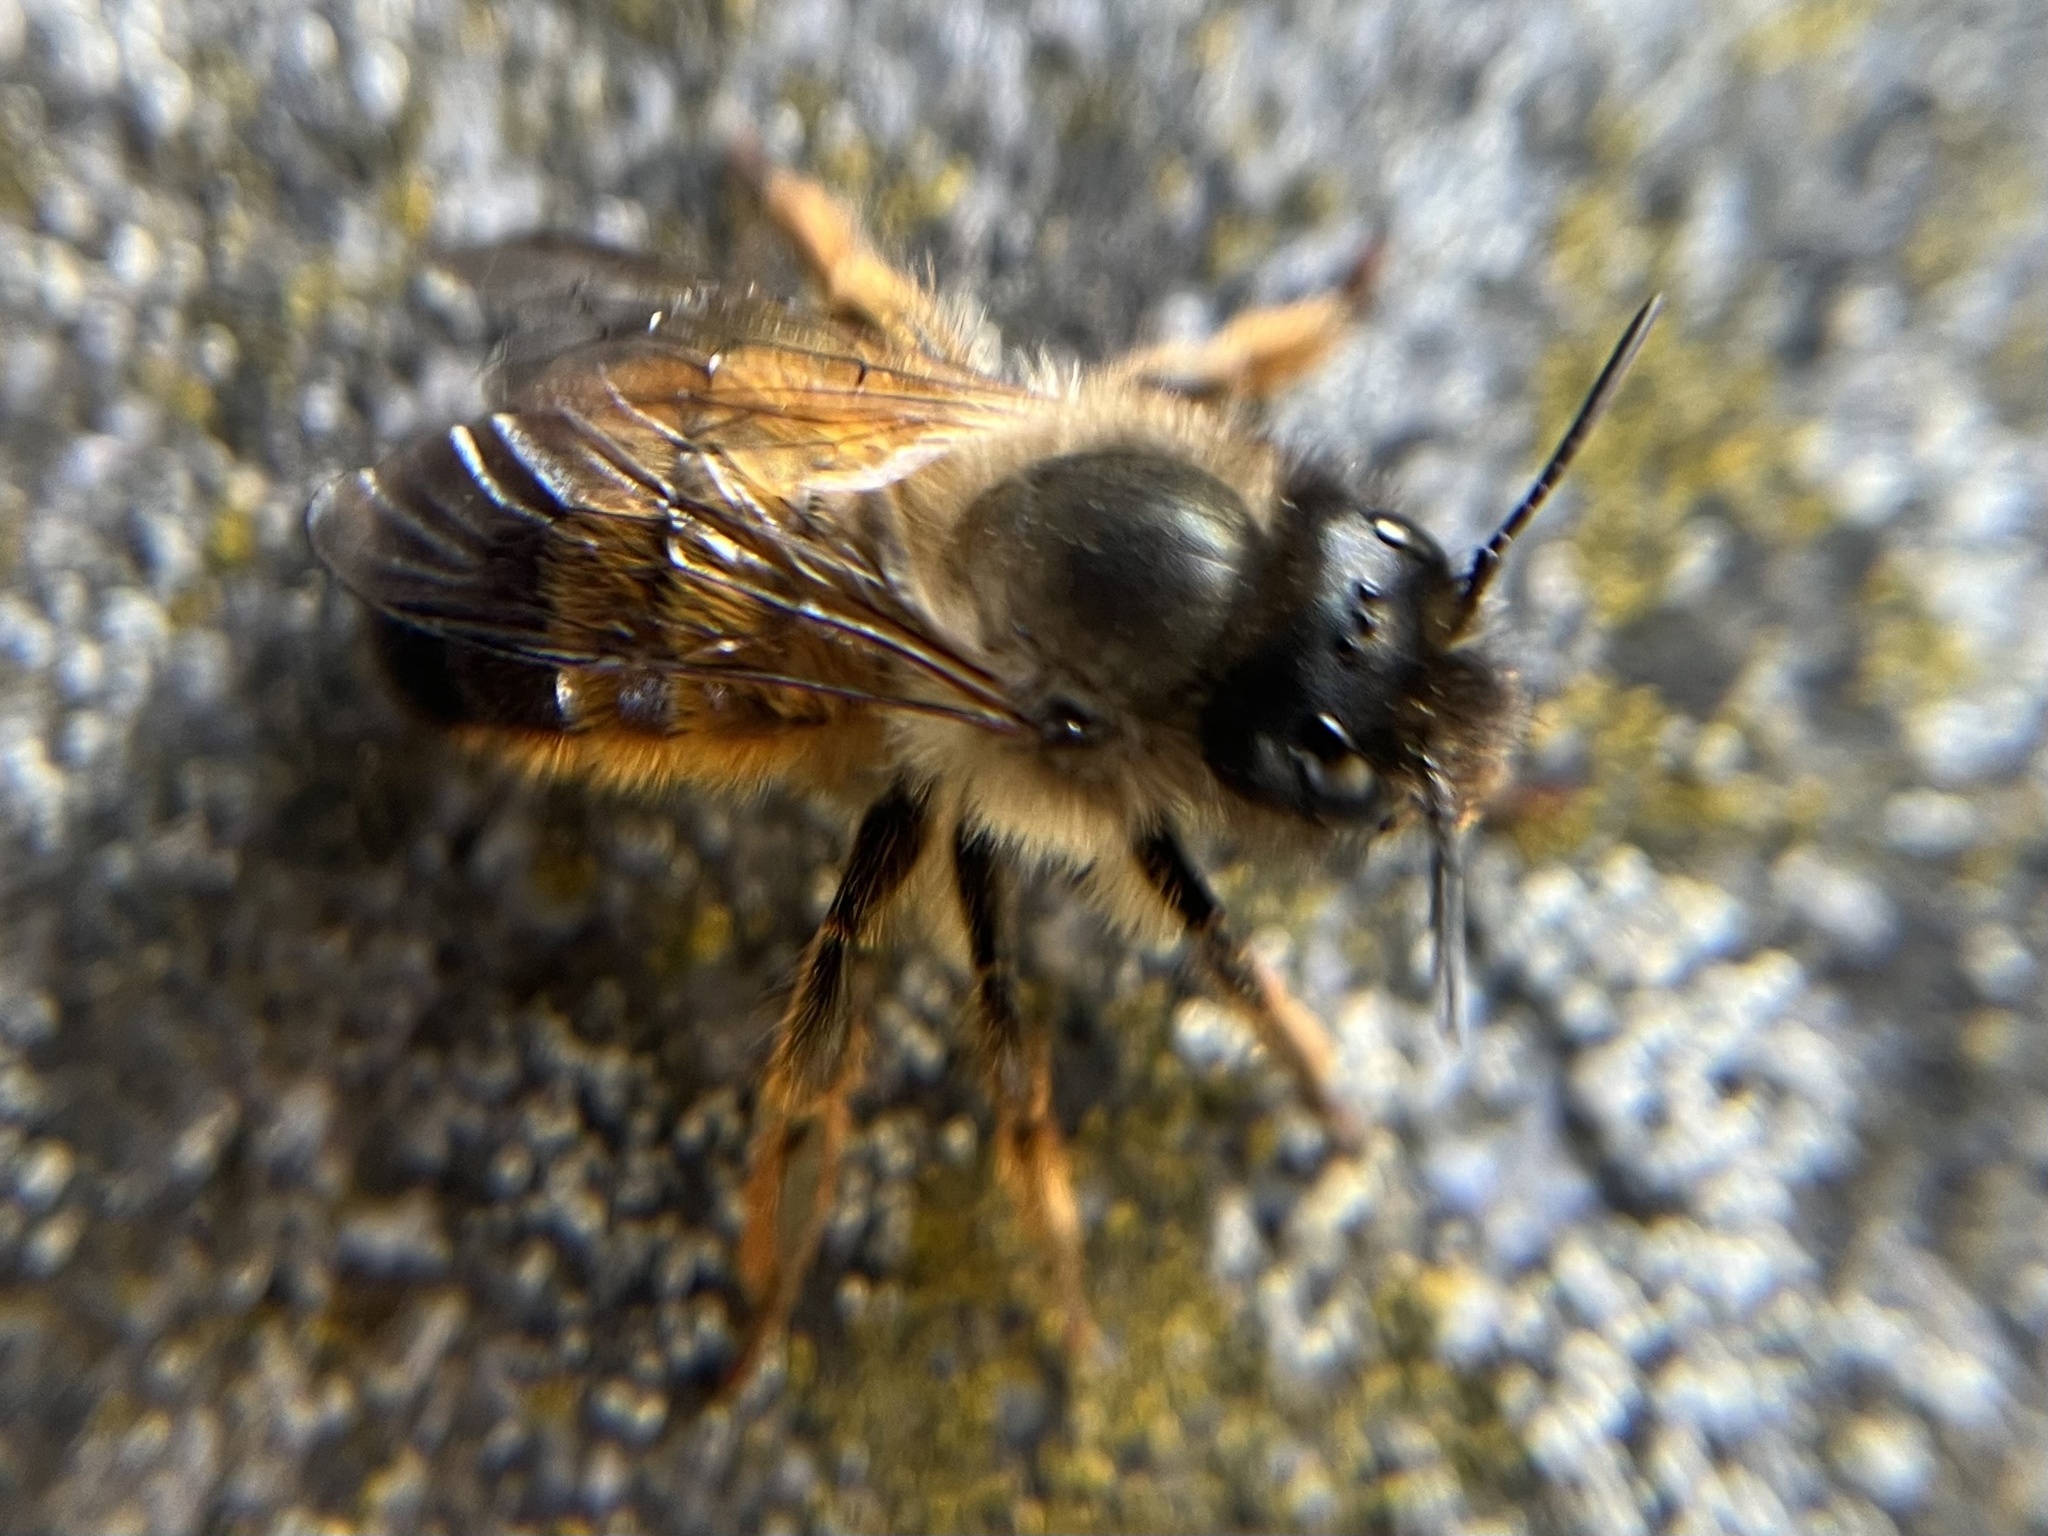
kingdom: Animalia
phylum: Arthropoda
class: Insecta
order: Hymenoptera
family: Megachilidae
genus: Osmia
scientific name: Osmia bicornis
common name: Red mason bee
